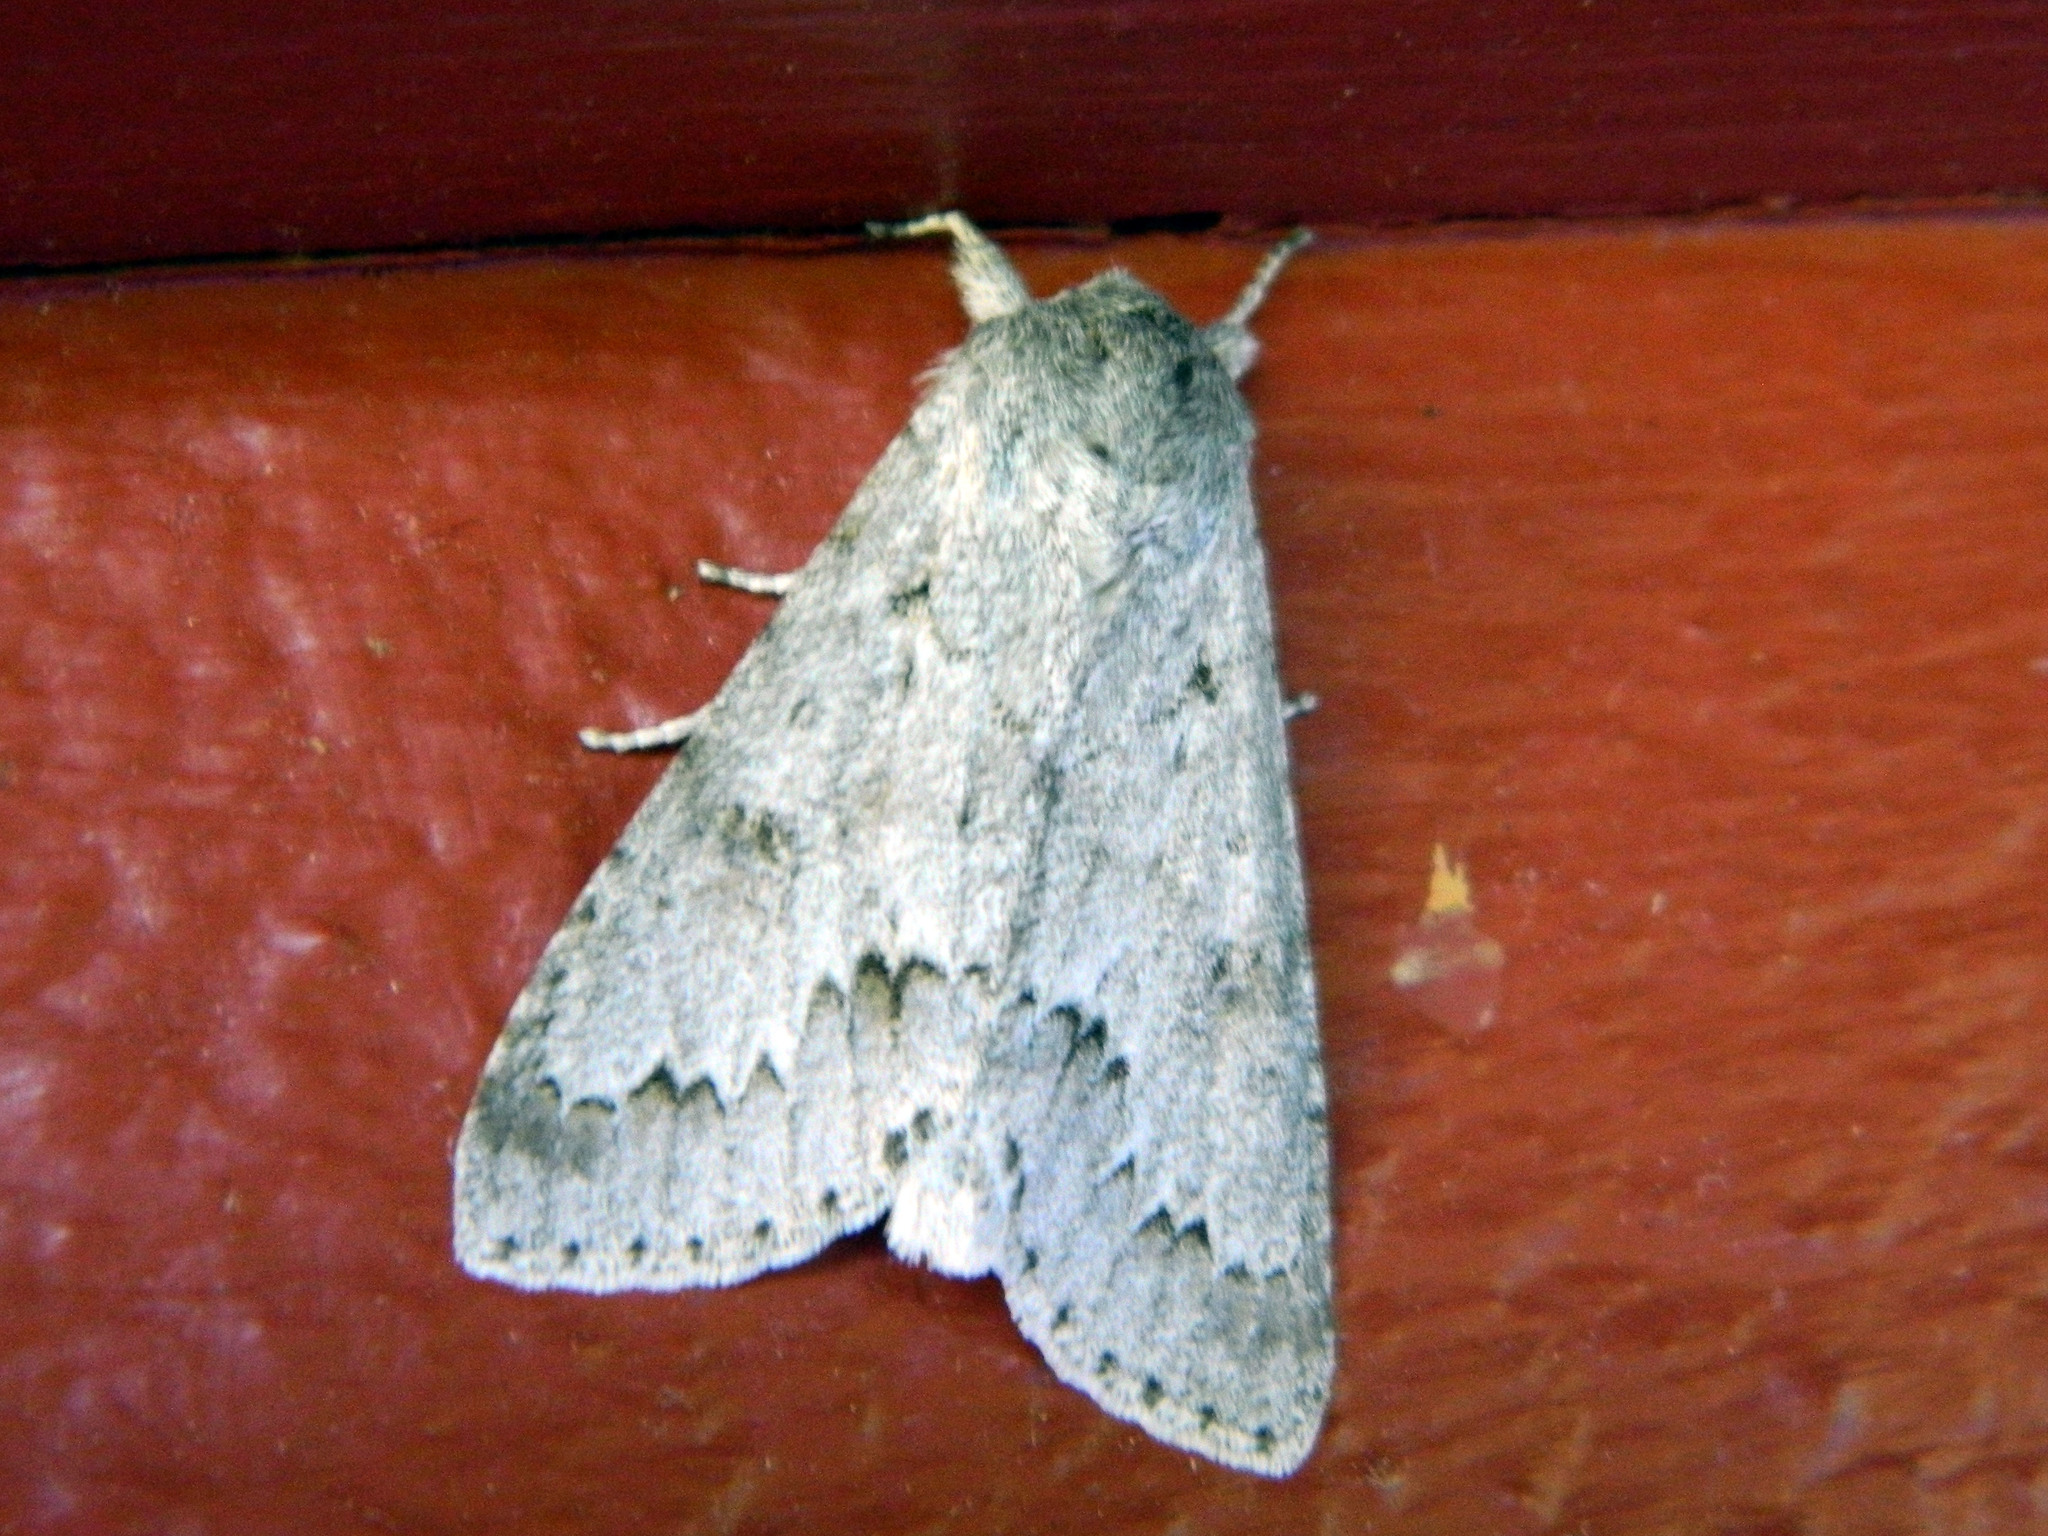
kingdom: Animalia
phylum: Arthropoda
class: Insecta
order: Lepidoptera
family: Noctuidae
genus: Acronicta
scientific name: Acronicta insita
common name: Large gray dagger
